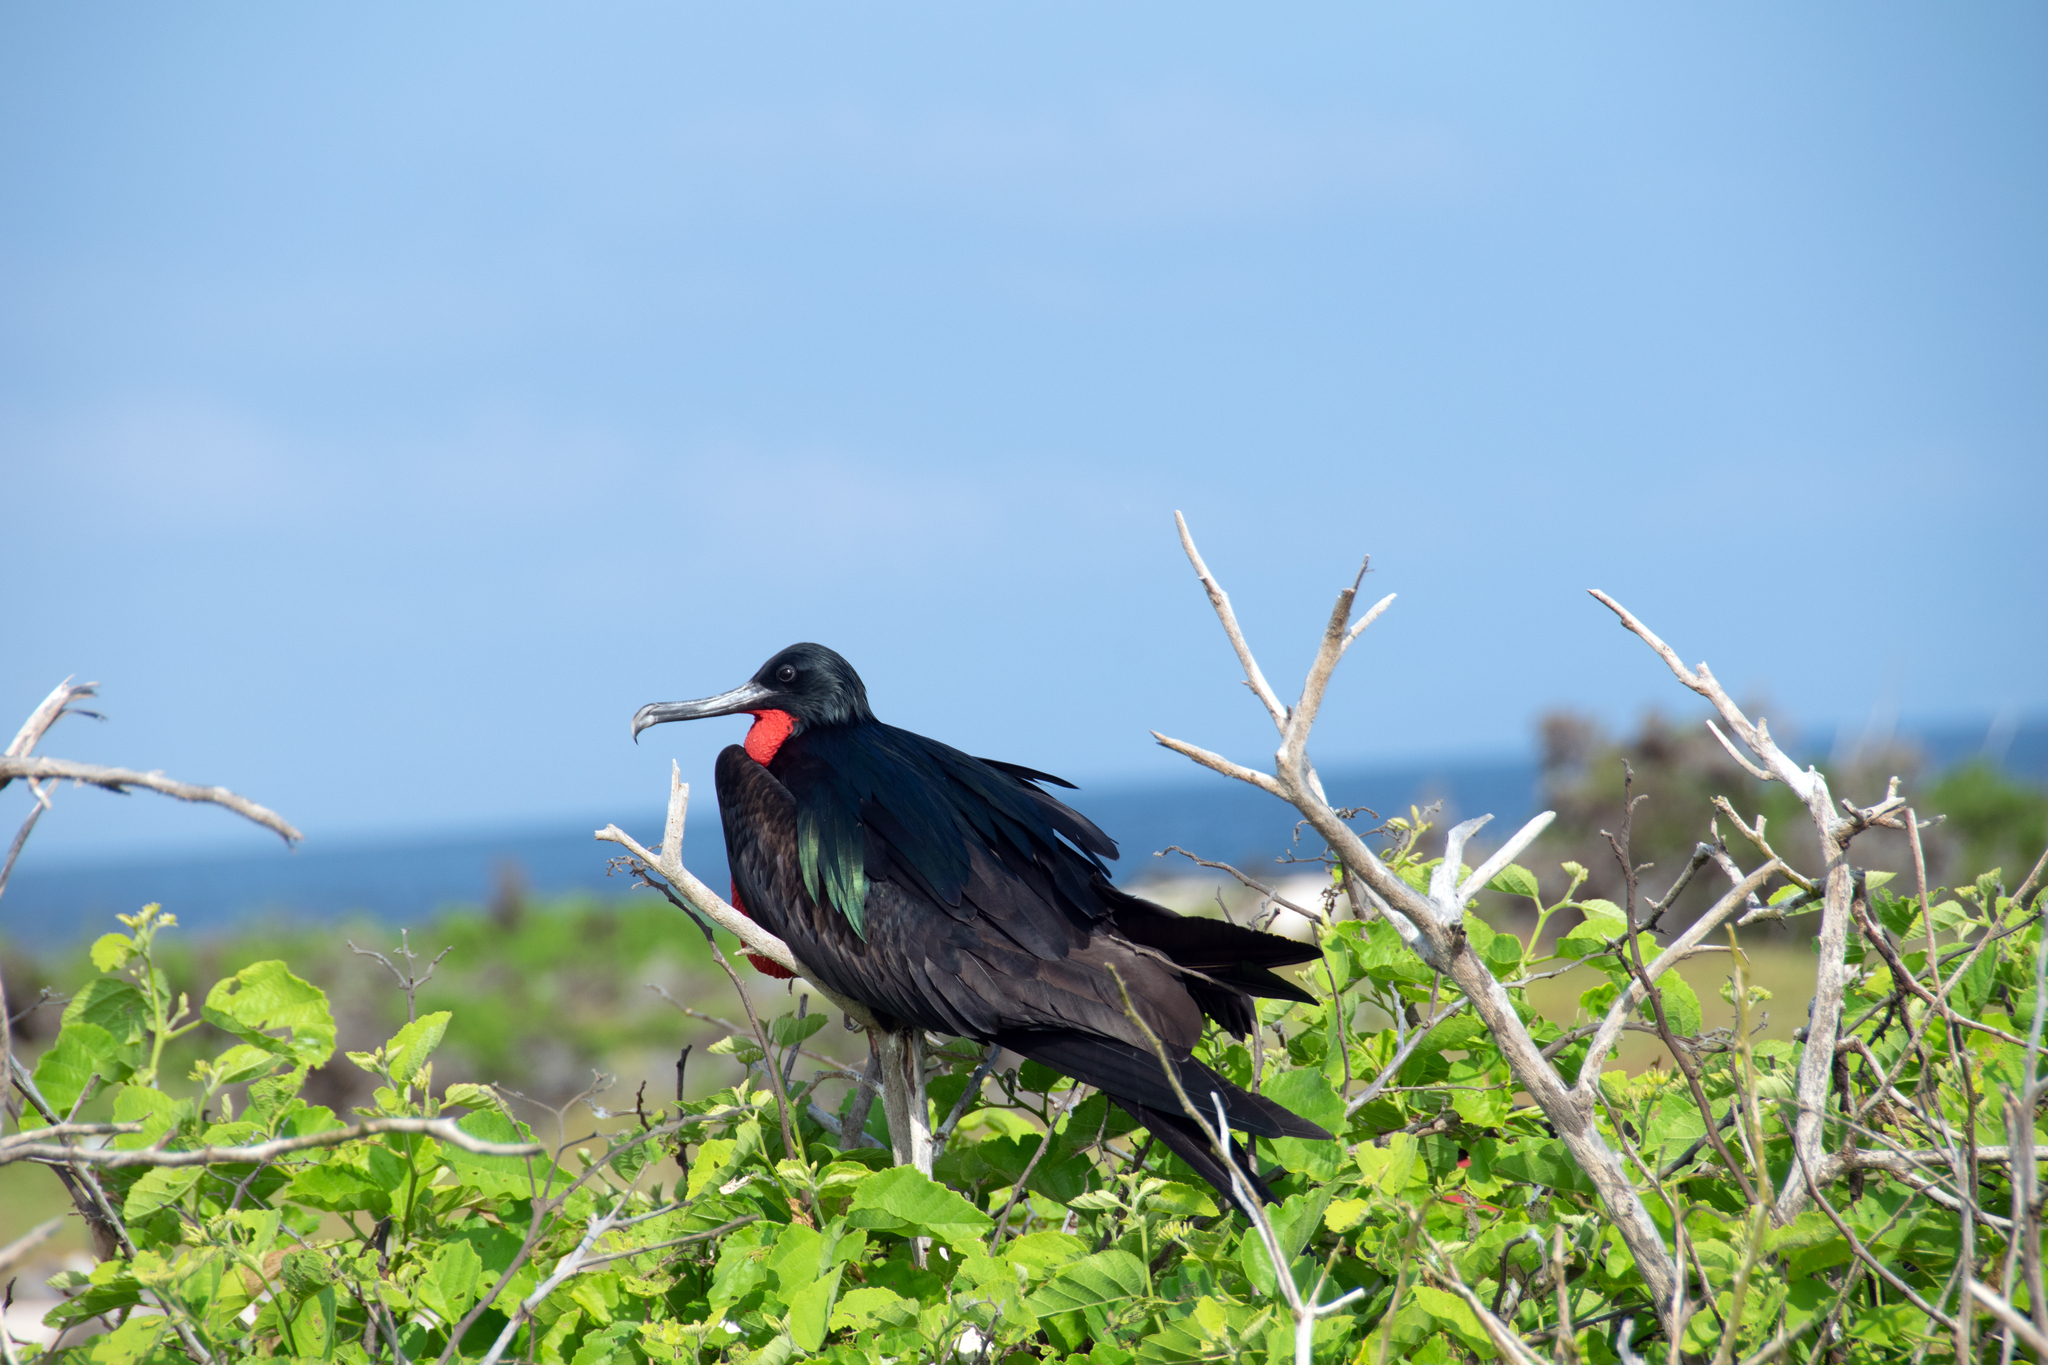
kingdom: Animalia
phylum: Chordata
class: Aves
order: Suliformes
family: Fregatidae
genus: Fregata
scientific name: Fregata minor
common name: Great frigatebird
